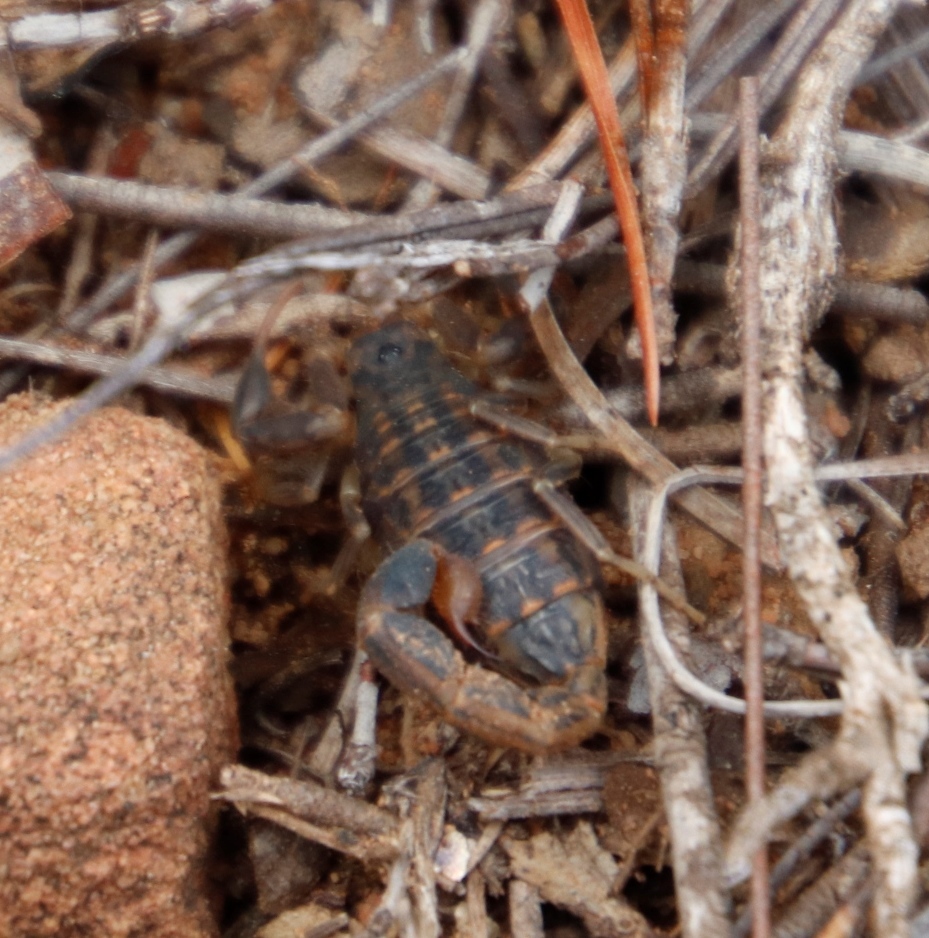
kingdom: Animalia
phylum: Arthropoda
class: Arachnida
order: Scorpiones
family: Buthidae
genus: Uroplectes
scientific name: Uroplectes lineatus
